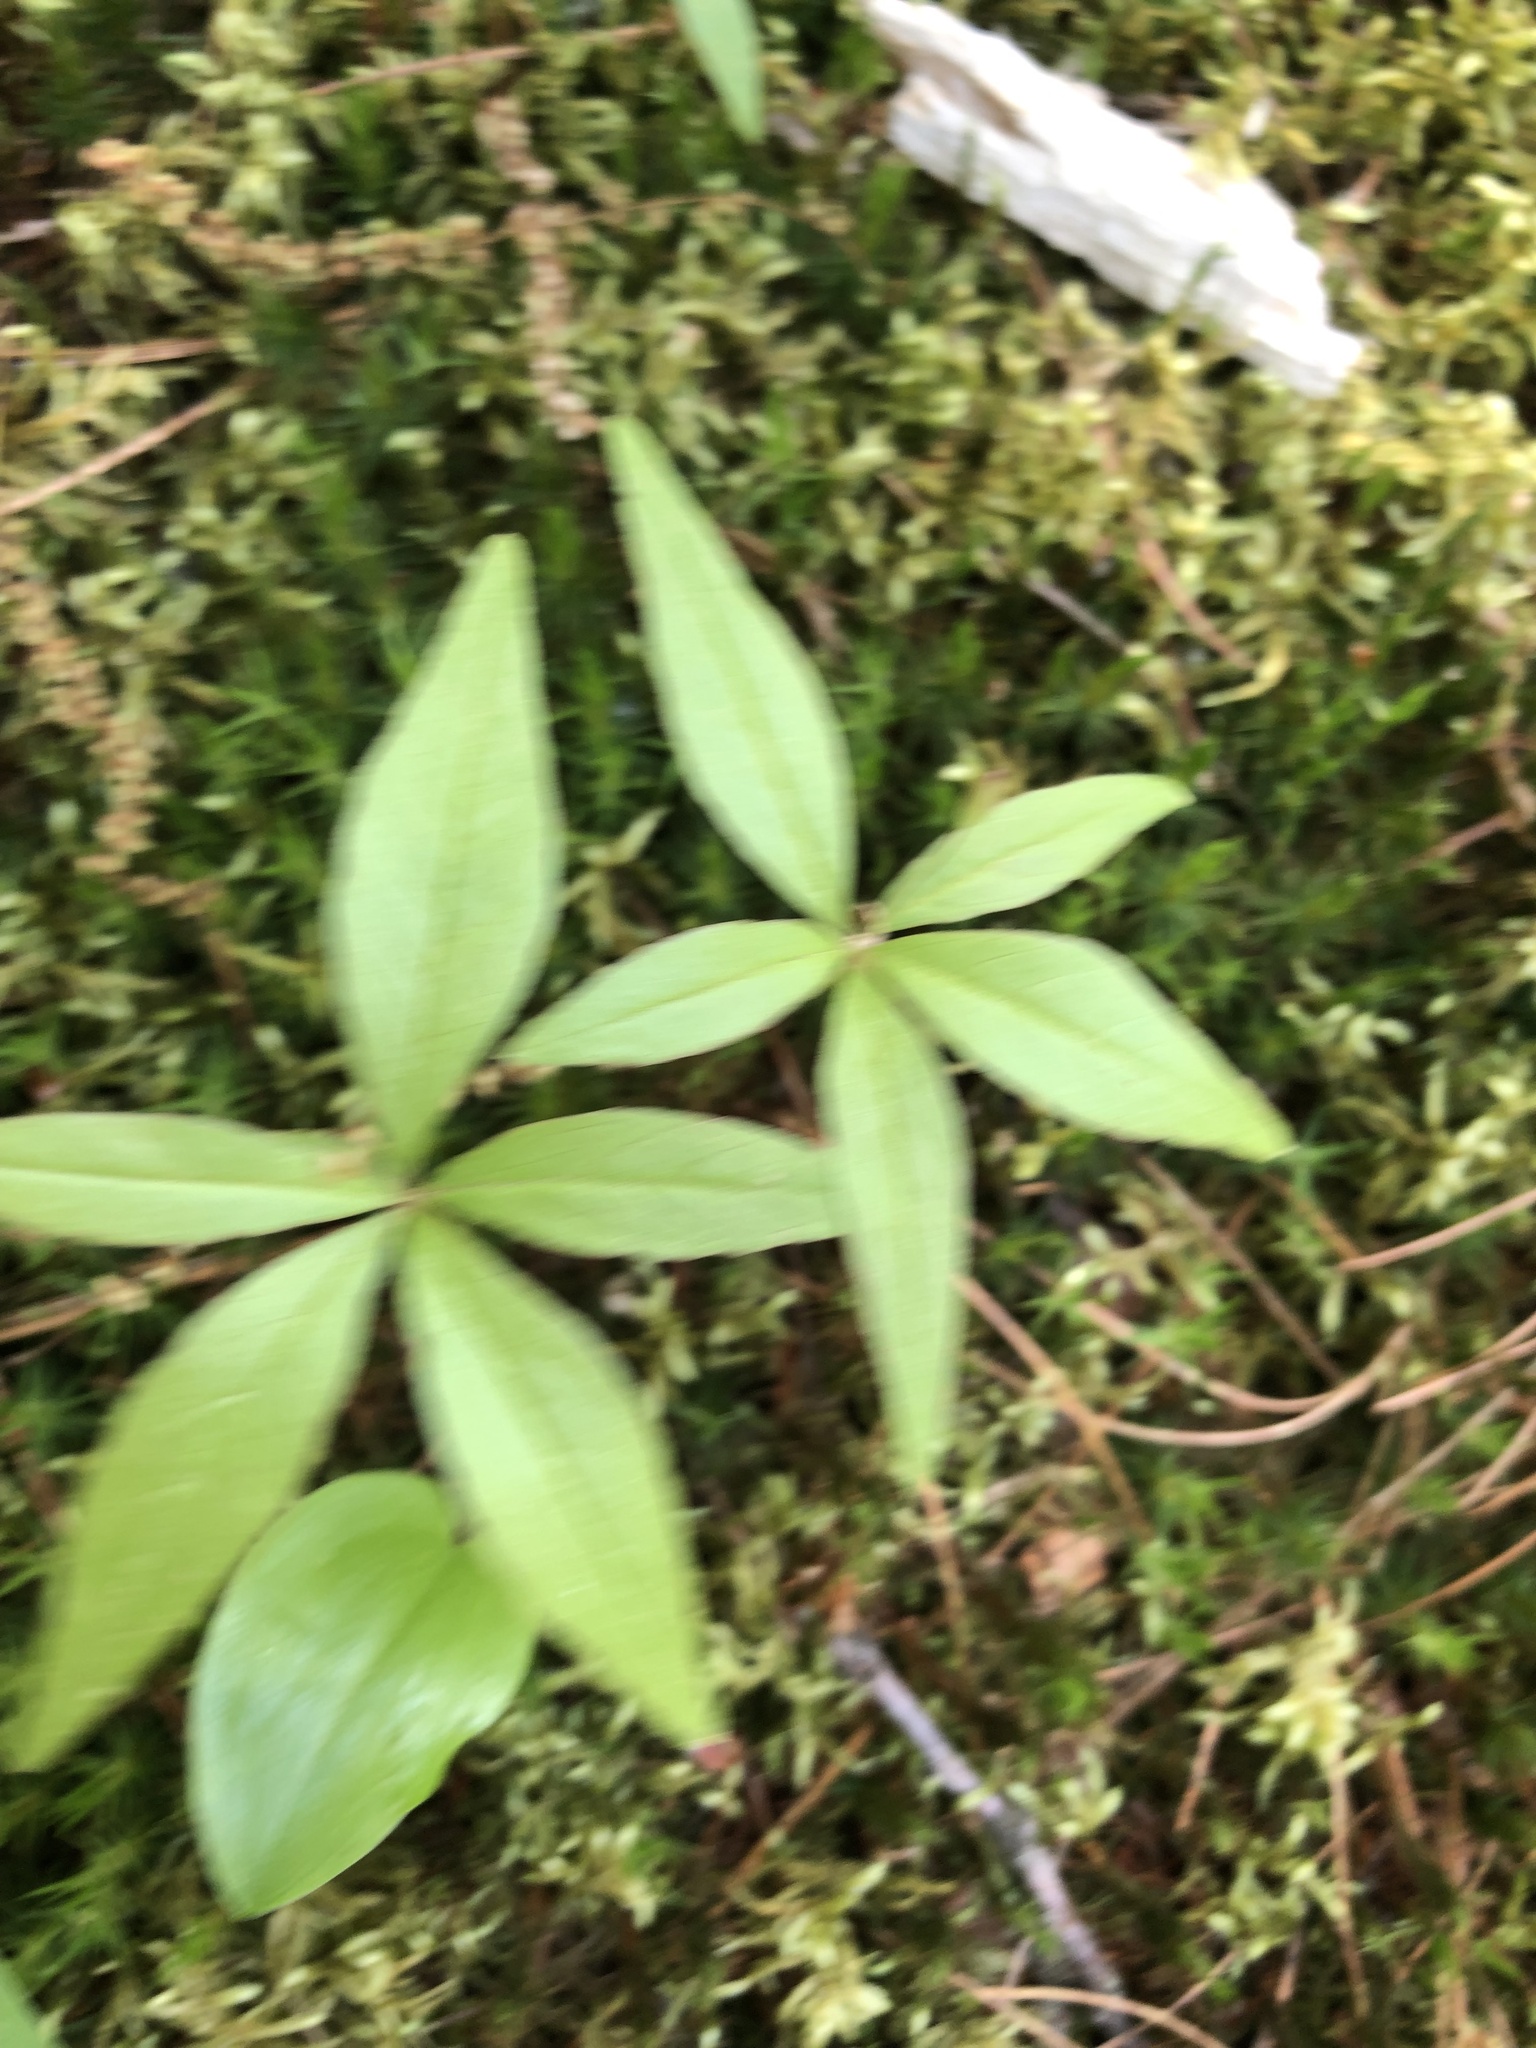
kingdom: Plantae
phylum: Tracheophyta
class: Magnoliopsida
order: Ericales
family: Primulaceae
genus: Lysimachia
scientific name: Lysimachia borealis
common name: American starflower
